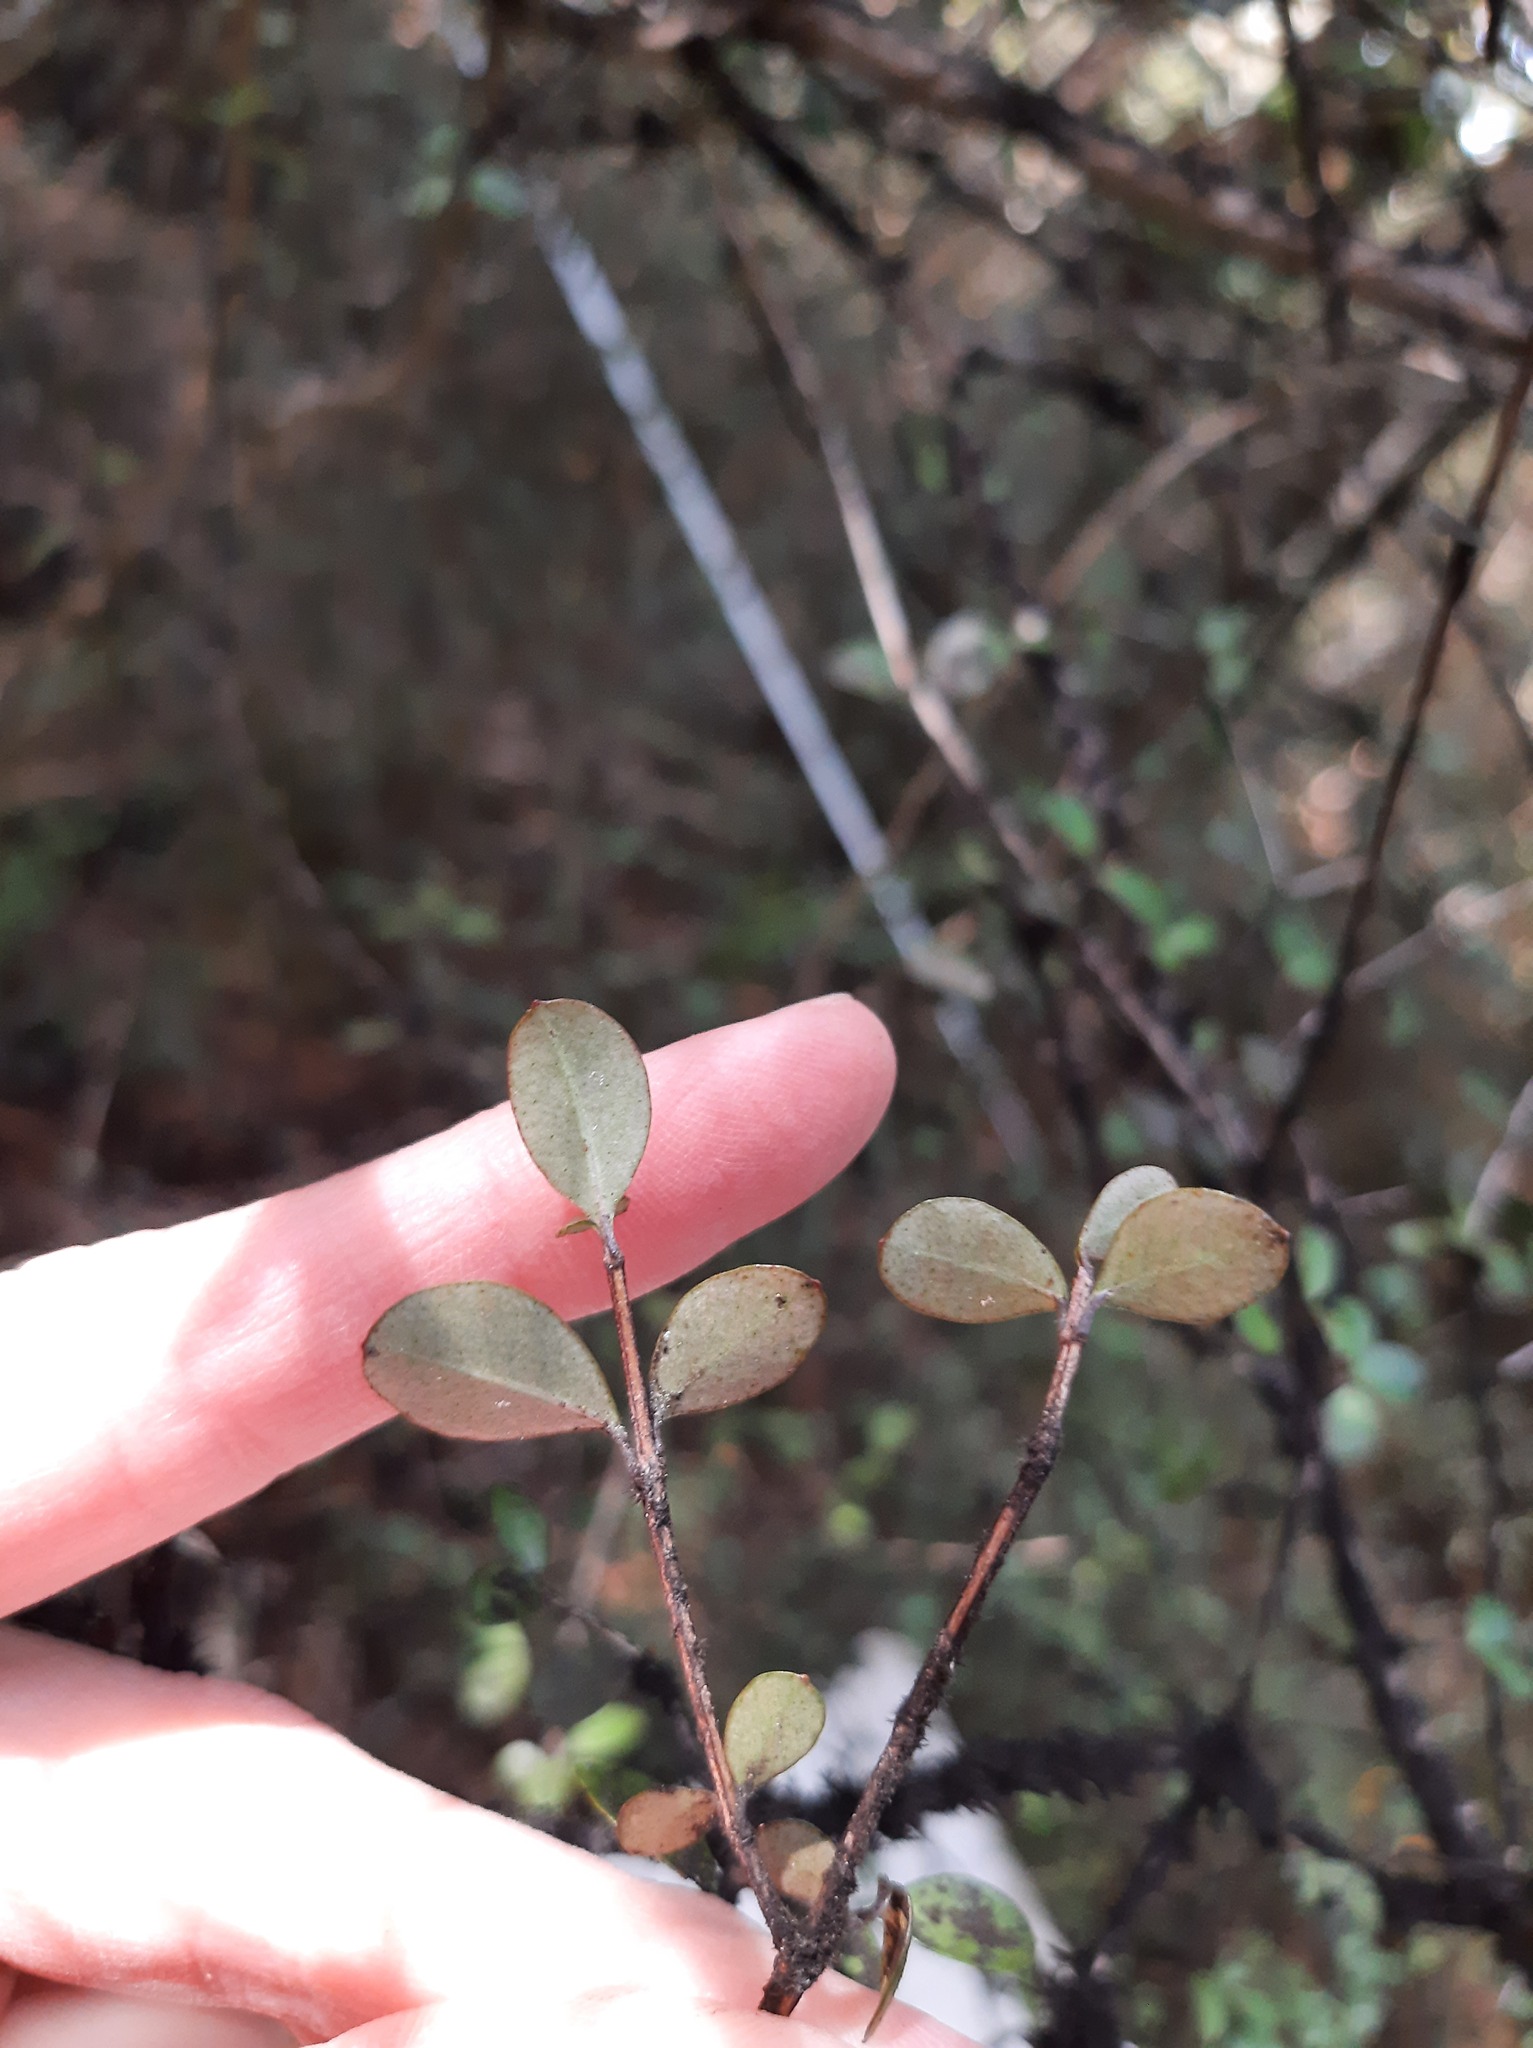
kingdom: Plantae
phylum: Tracheophyta
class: Magnoliopsida
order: Myrtales
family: Myrtaceae
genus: Neomyrtus
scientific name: Neomyrtus pedunculata
